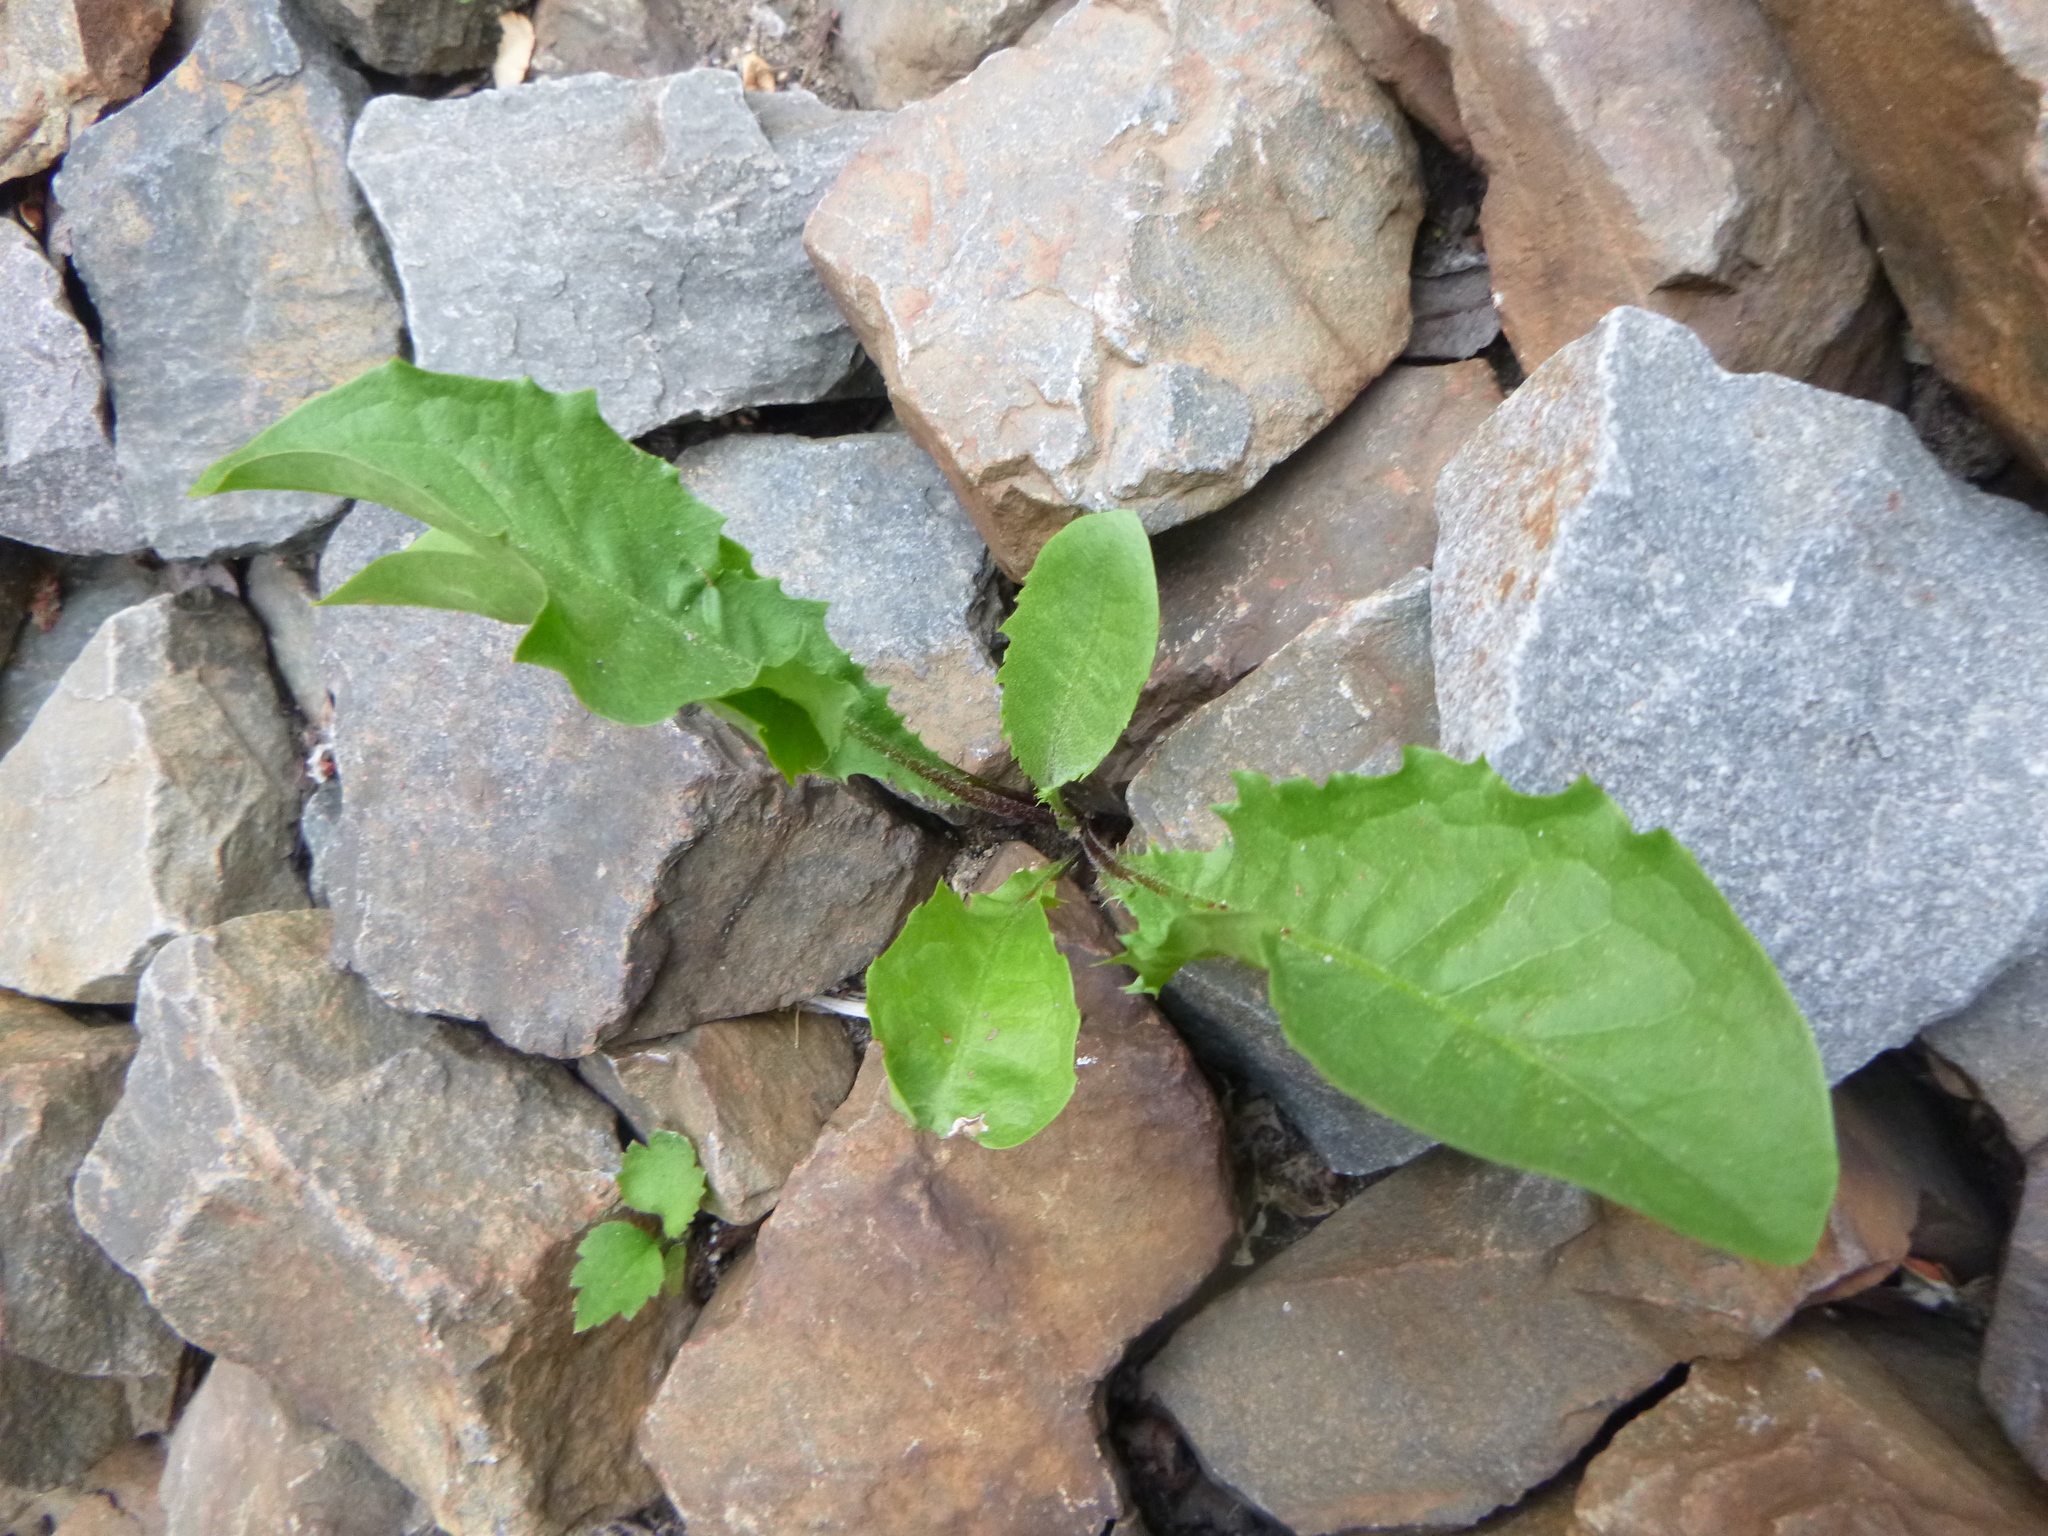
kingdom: Plantae
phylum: Tracheophyta
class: Magnoliopsida
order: Asterales
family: Asteraceae
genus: Taraxacum
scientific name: Taraxacum officinale
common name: Common dandelion
